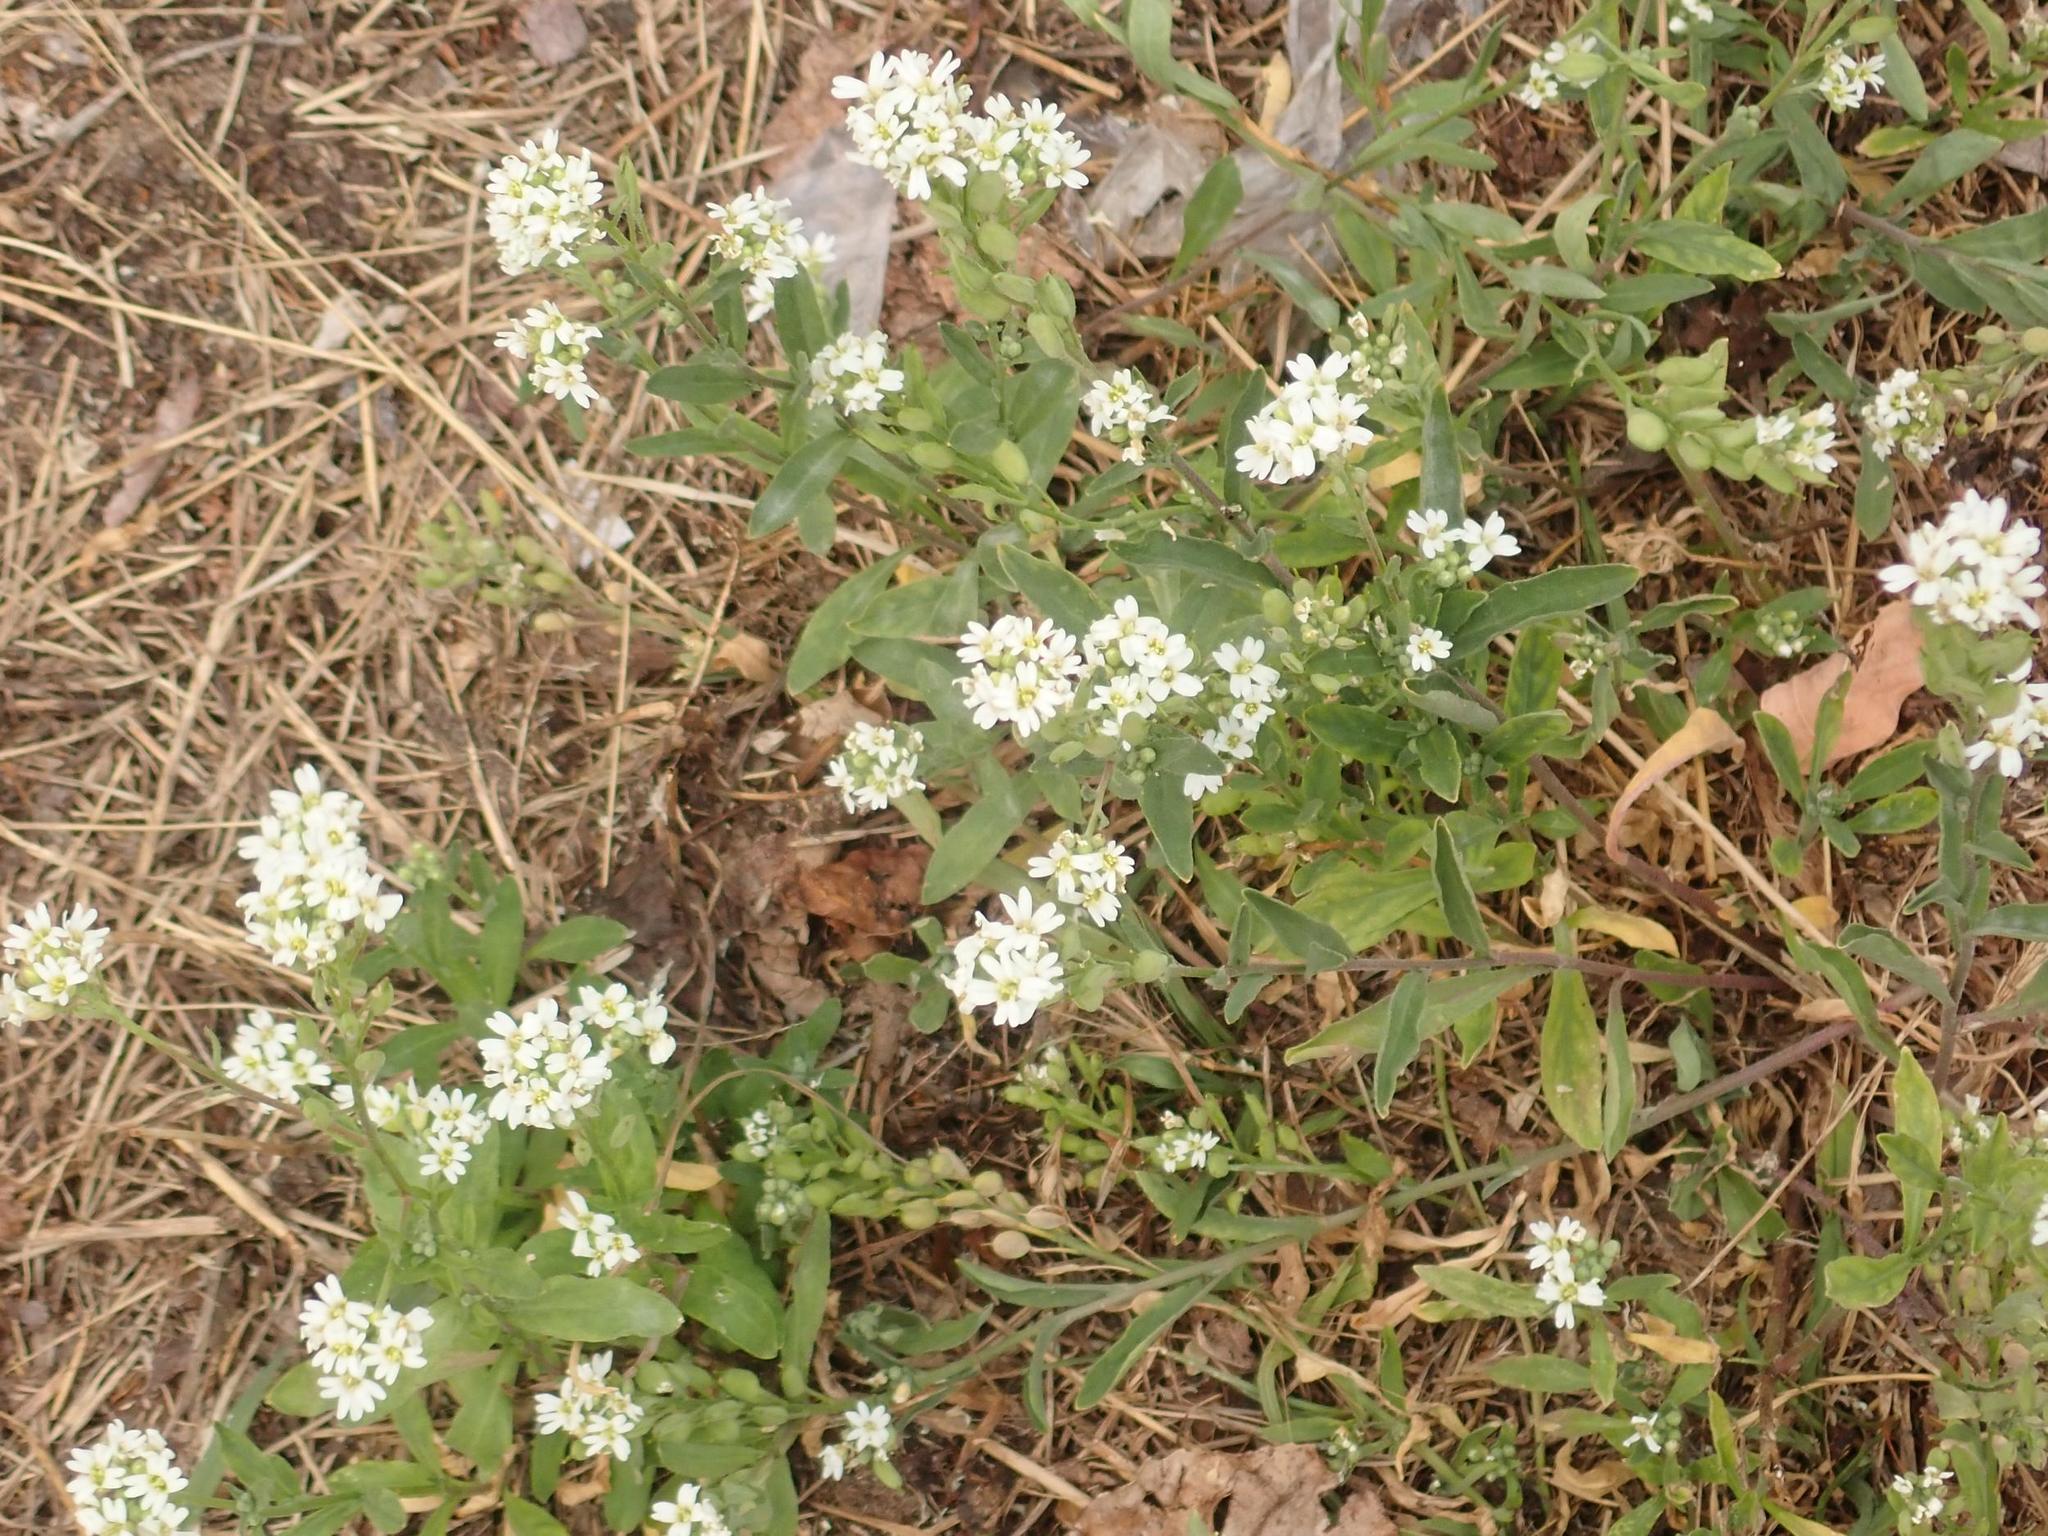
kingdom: Plantae
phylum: Tracheophyta
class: Magnoliopsida
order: Brassicales
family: Brassicaceae
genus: Berteroa
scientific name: Berteroa incana
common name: Hoary alison
